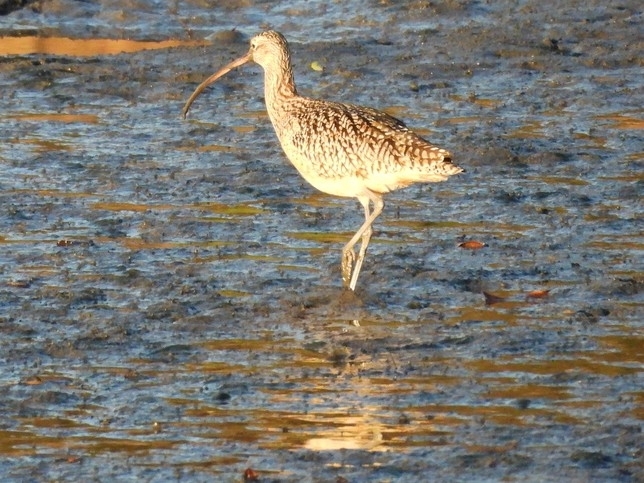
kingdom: Animalia
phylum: Chordata
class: Aves
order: Charadriiformes
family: Scolopacidae
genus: Numenius
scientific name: Numenius americanus
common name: Long-billed curlew
